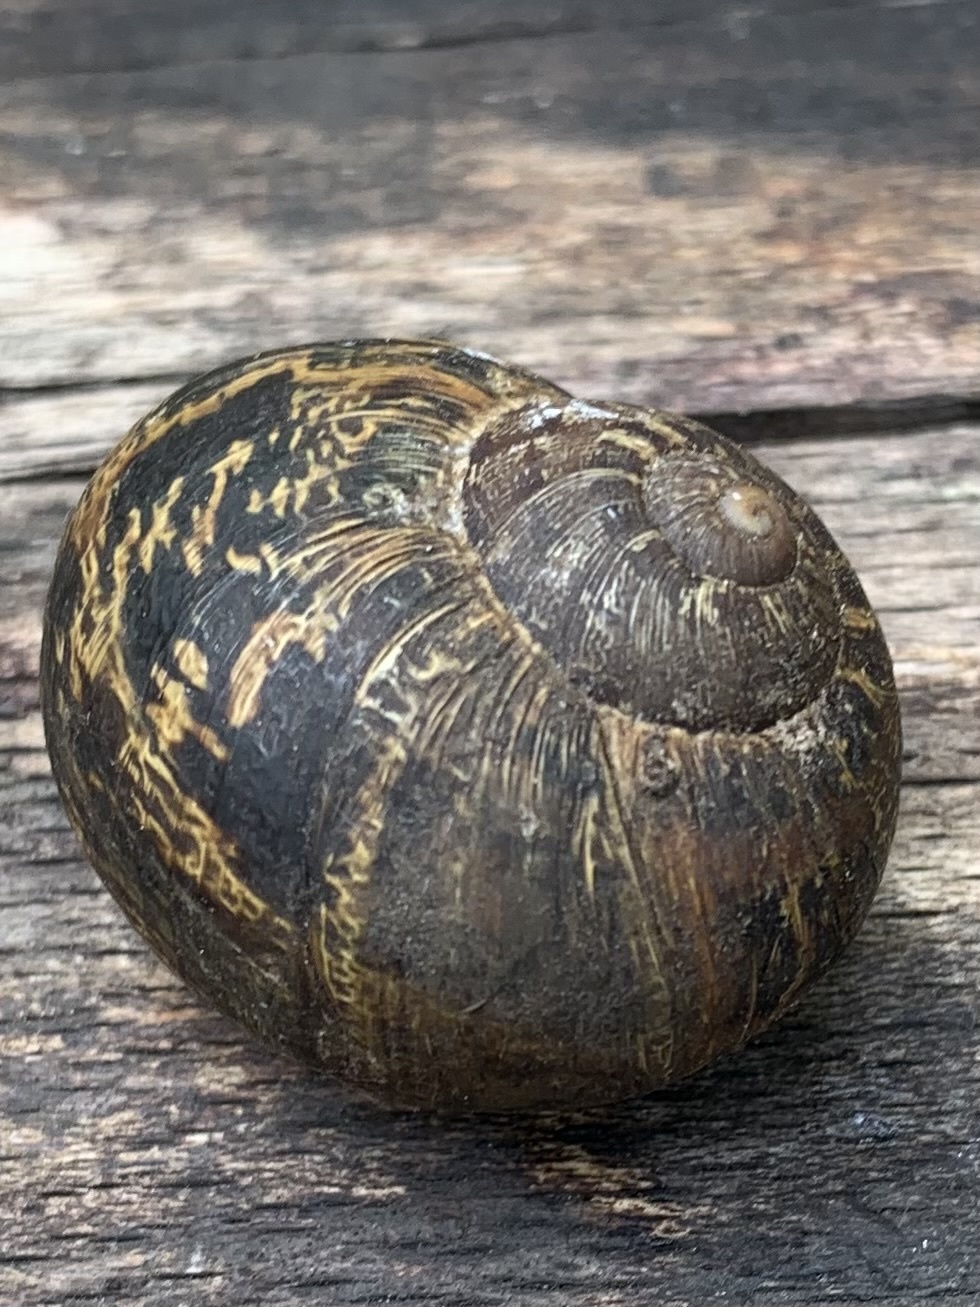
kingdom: Animalia
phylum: Mollusca
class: Gastropoda
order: Stylommatophora
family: Helicidae
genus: Cornu
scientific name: Cornu aspersum
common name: Brown garden snail
